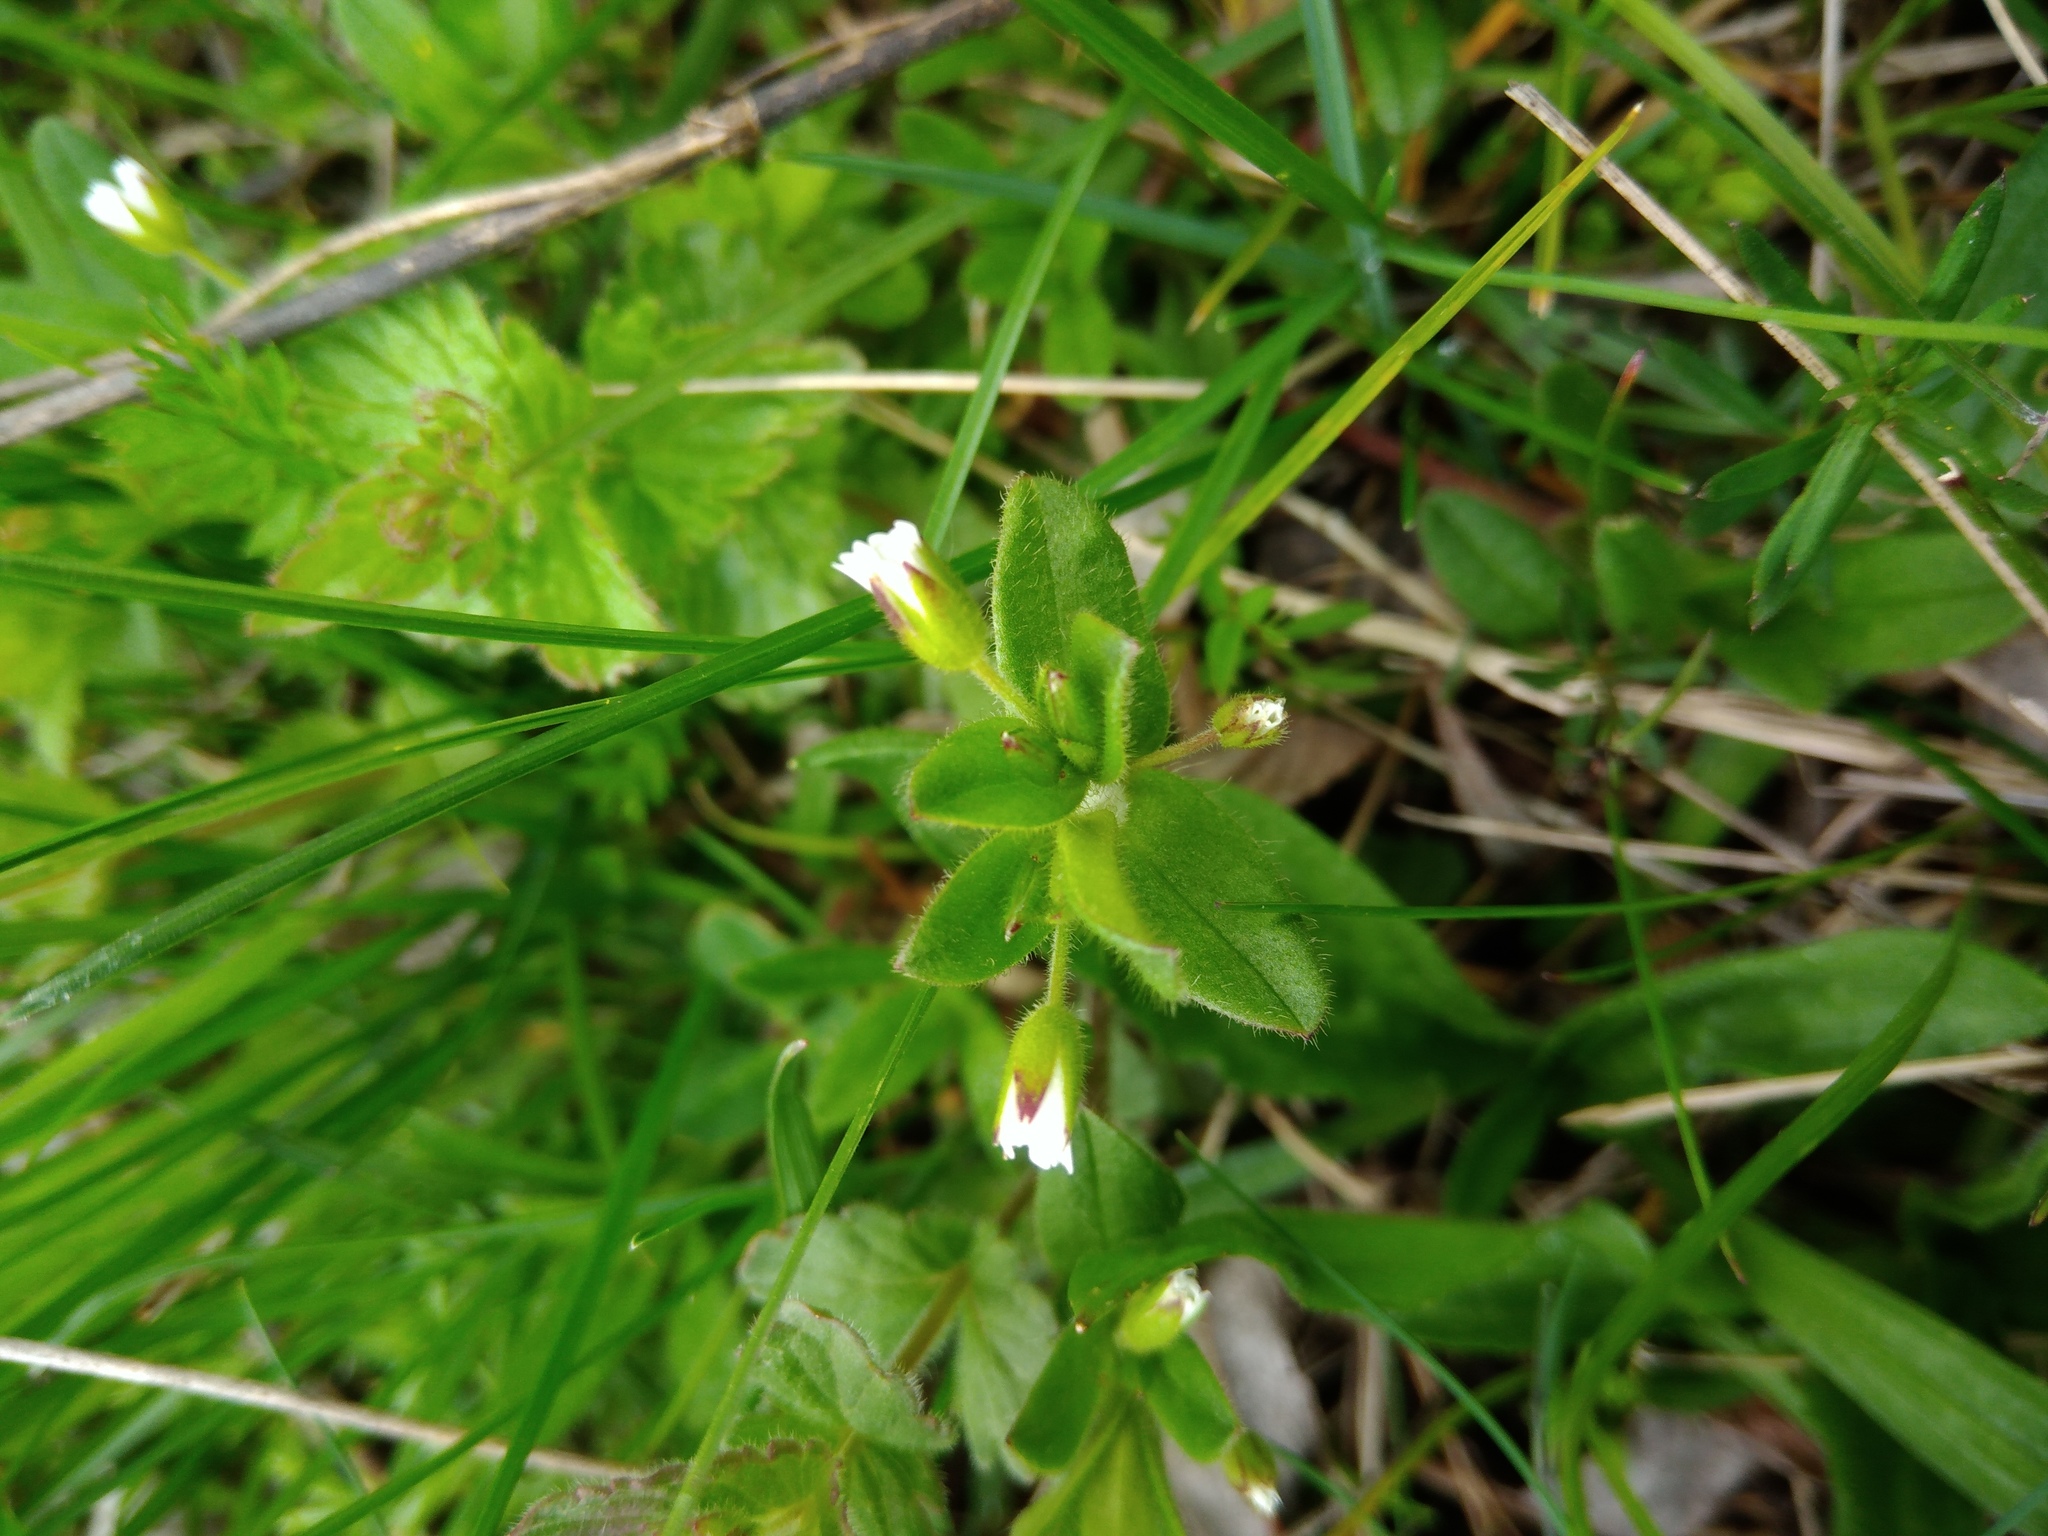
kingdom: Plantae
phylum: Tracheophyta
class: Magnoliopsida
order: Caryophyllales
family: Caryophyllaceae
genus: Cerastium
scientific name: Cerastium holosteoides
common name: Big chickweed
